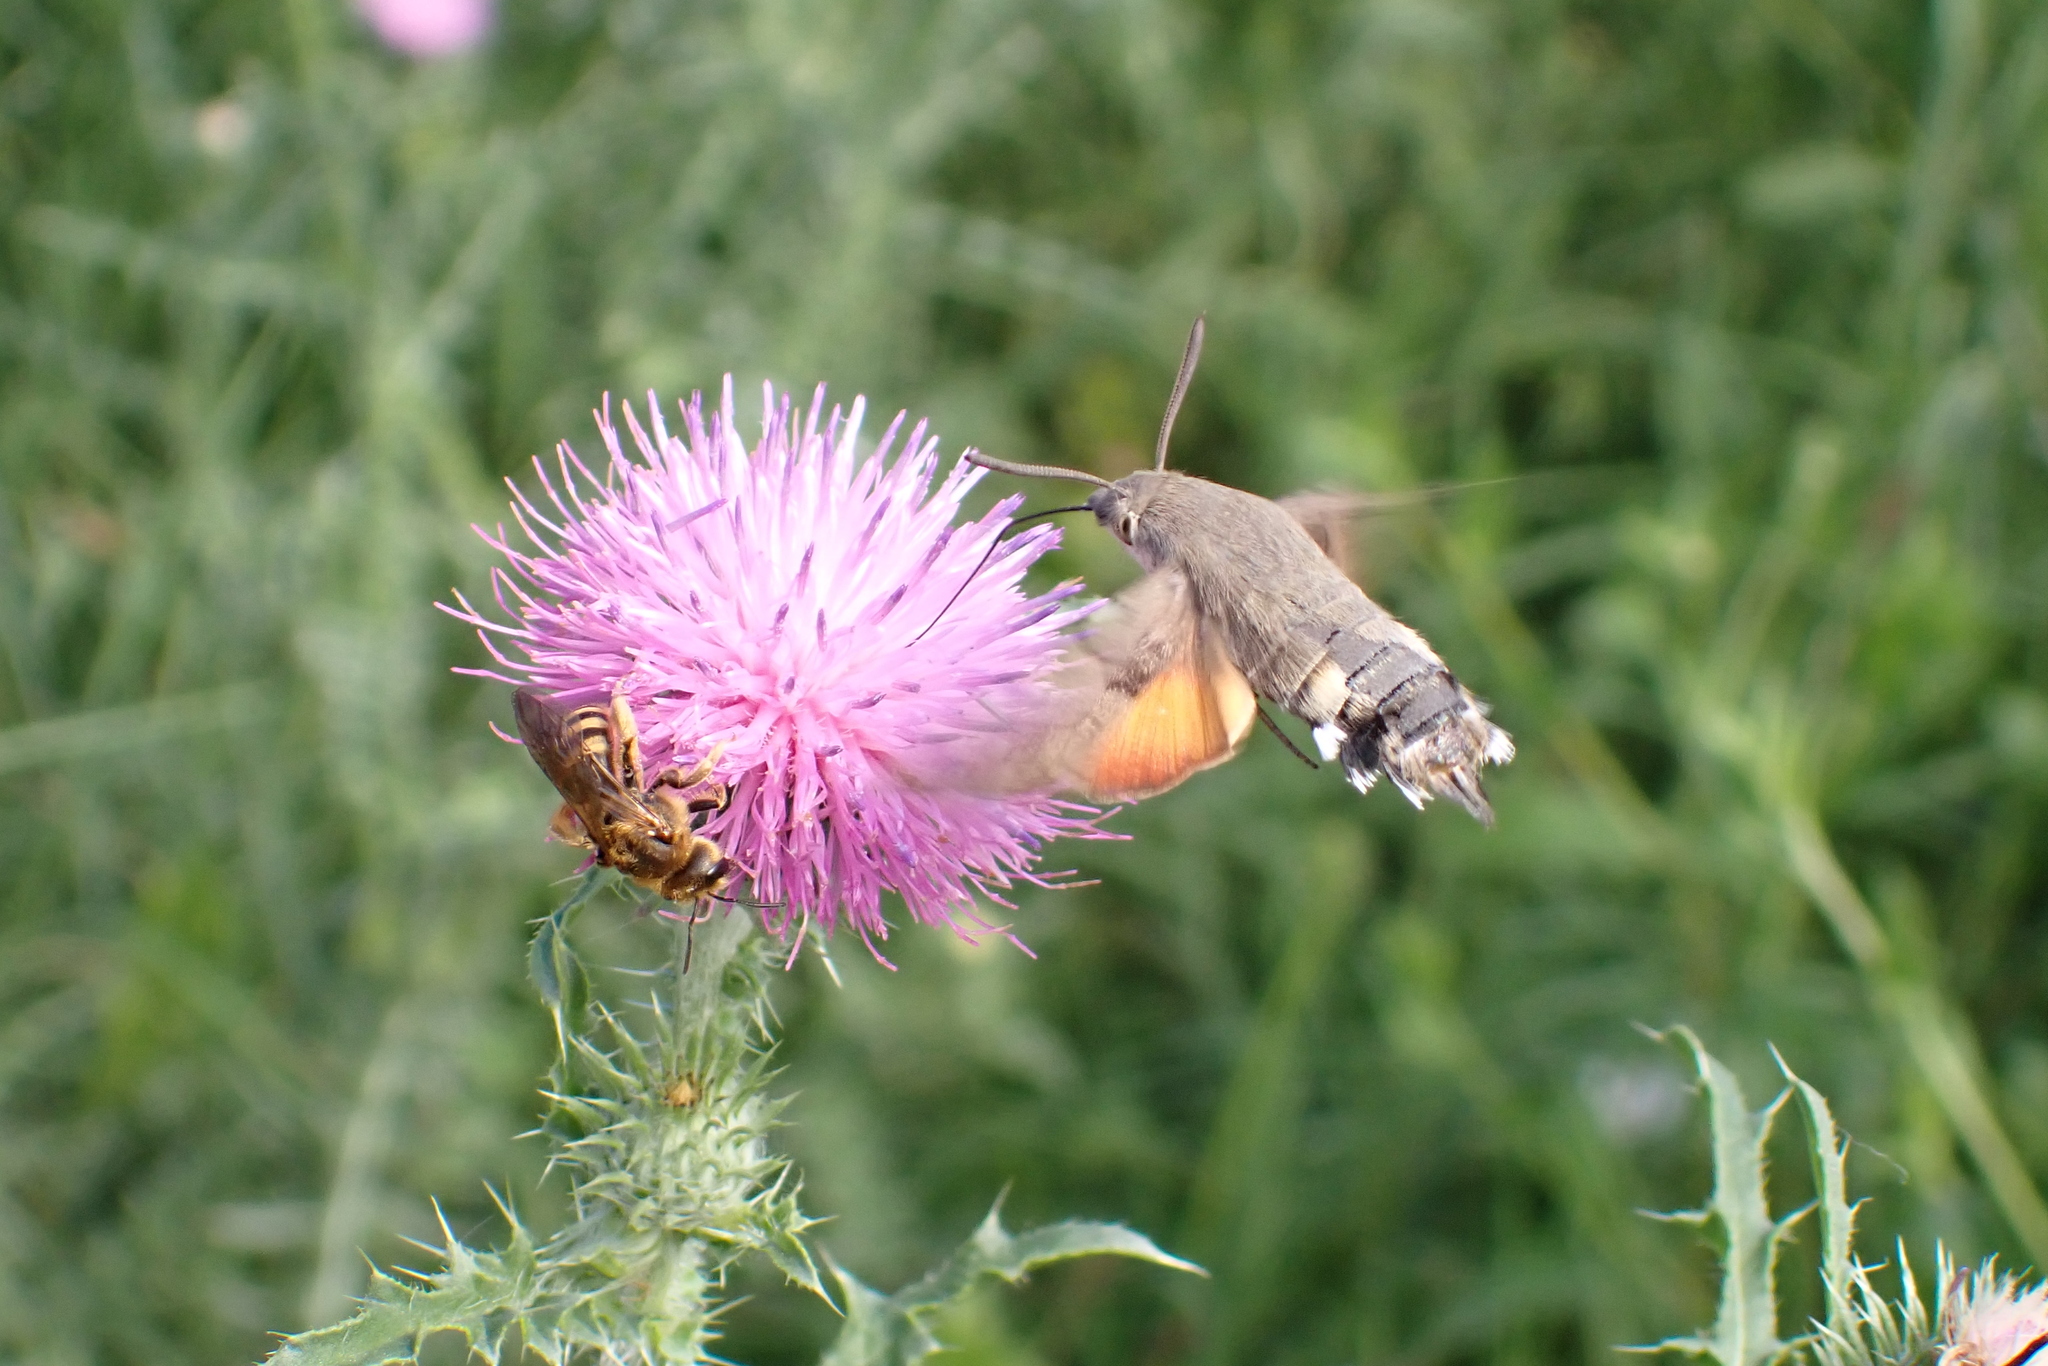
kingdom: Animalia
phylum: Arthropoda
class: Insecta
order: Lepidoptera
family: Sphingidae
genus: Macroglossum
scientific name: Macroglossum stellatarum
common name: Humming-bird hawk-moth
